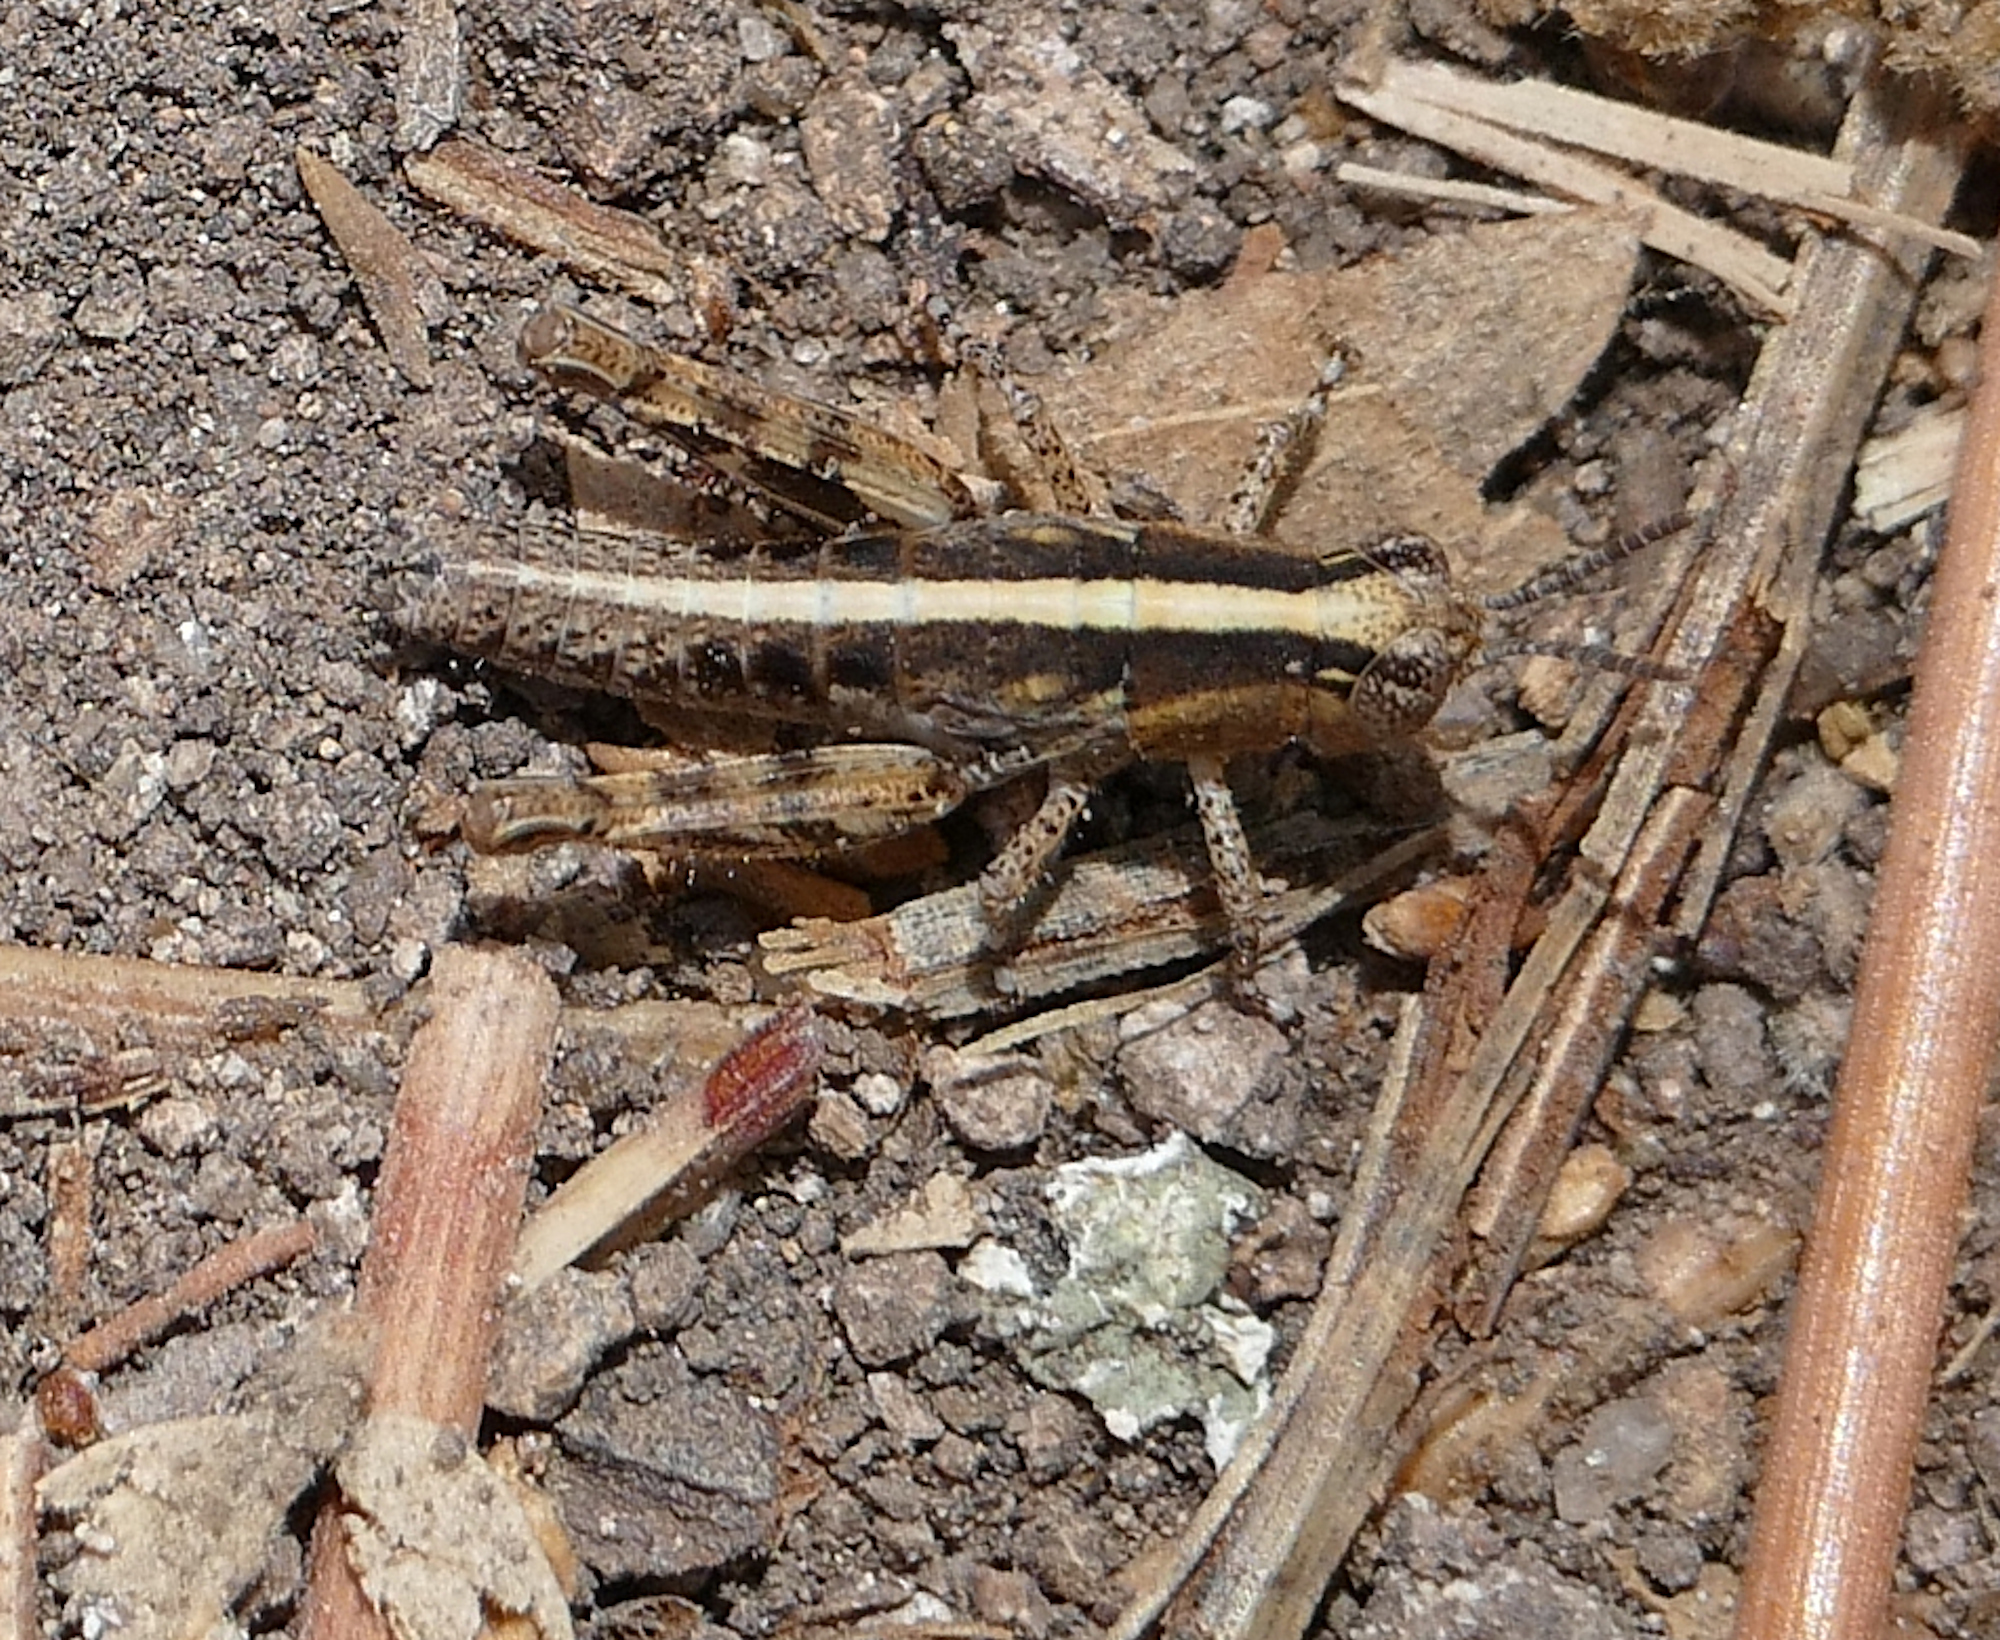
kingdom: Animalia
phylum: Arthropoda
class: Insecta
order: Orthoptera
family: Acrididae
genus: Barytettix
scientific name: Barytettix humphreysii
